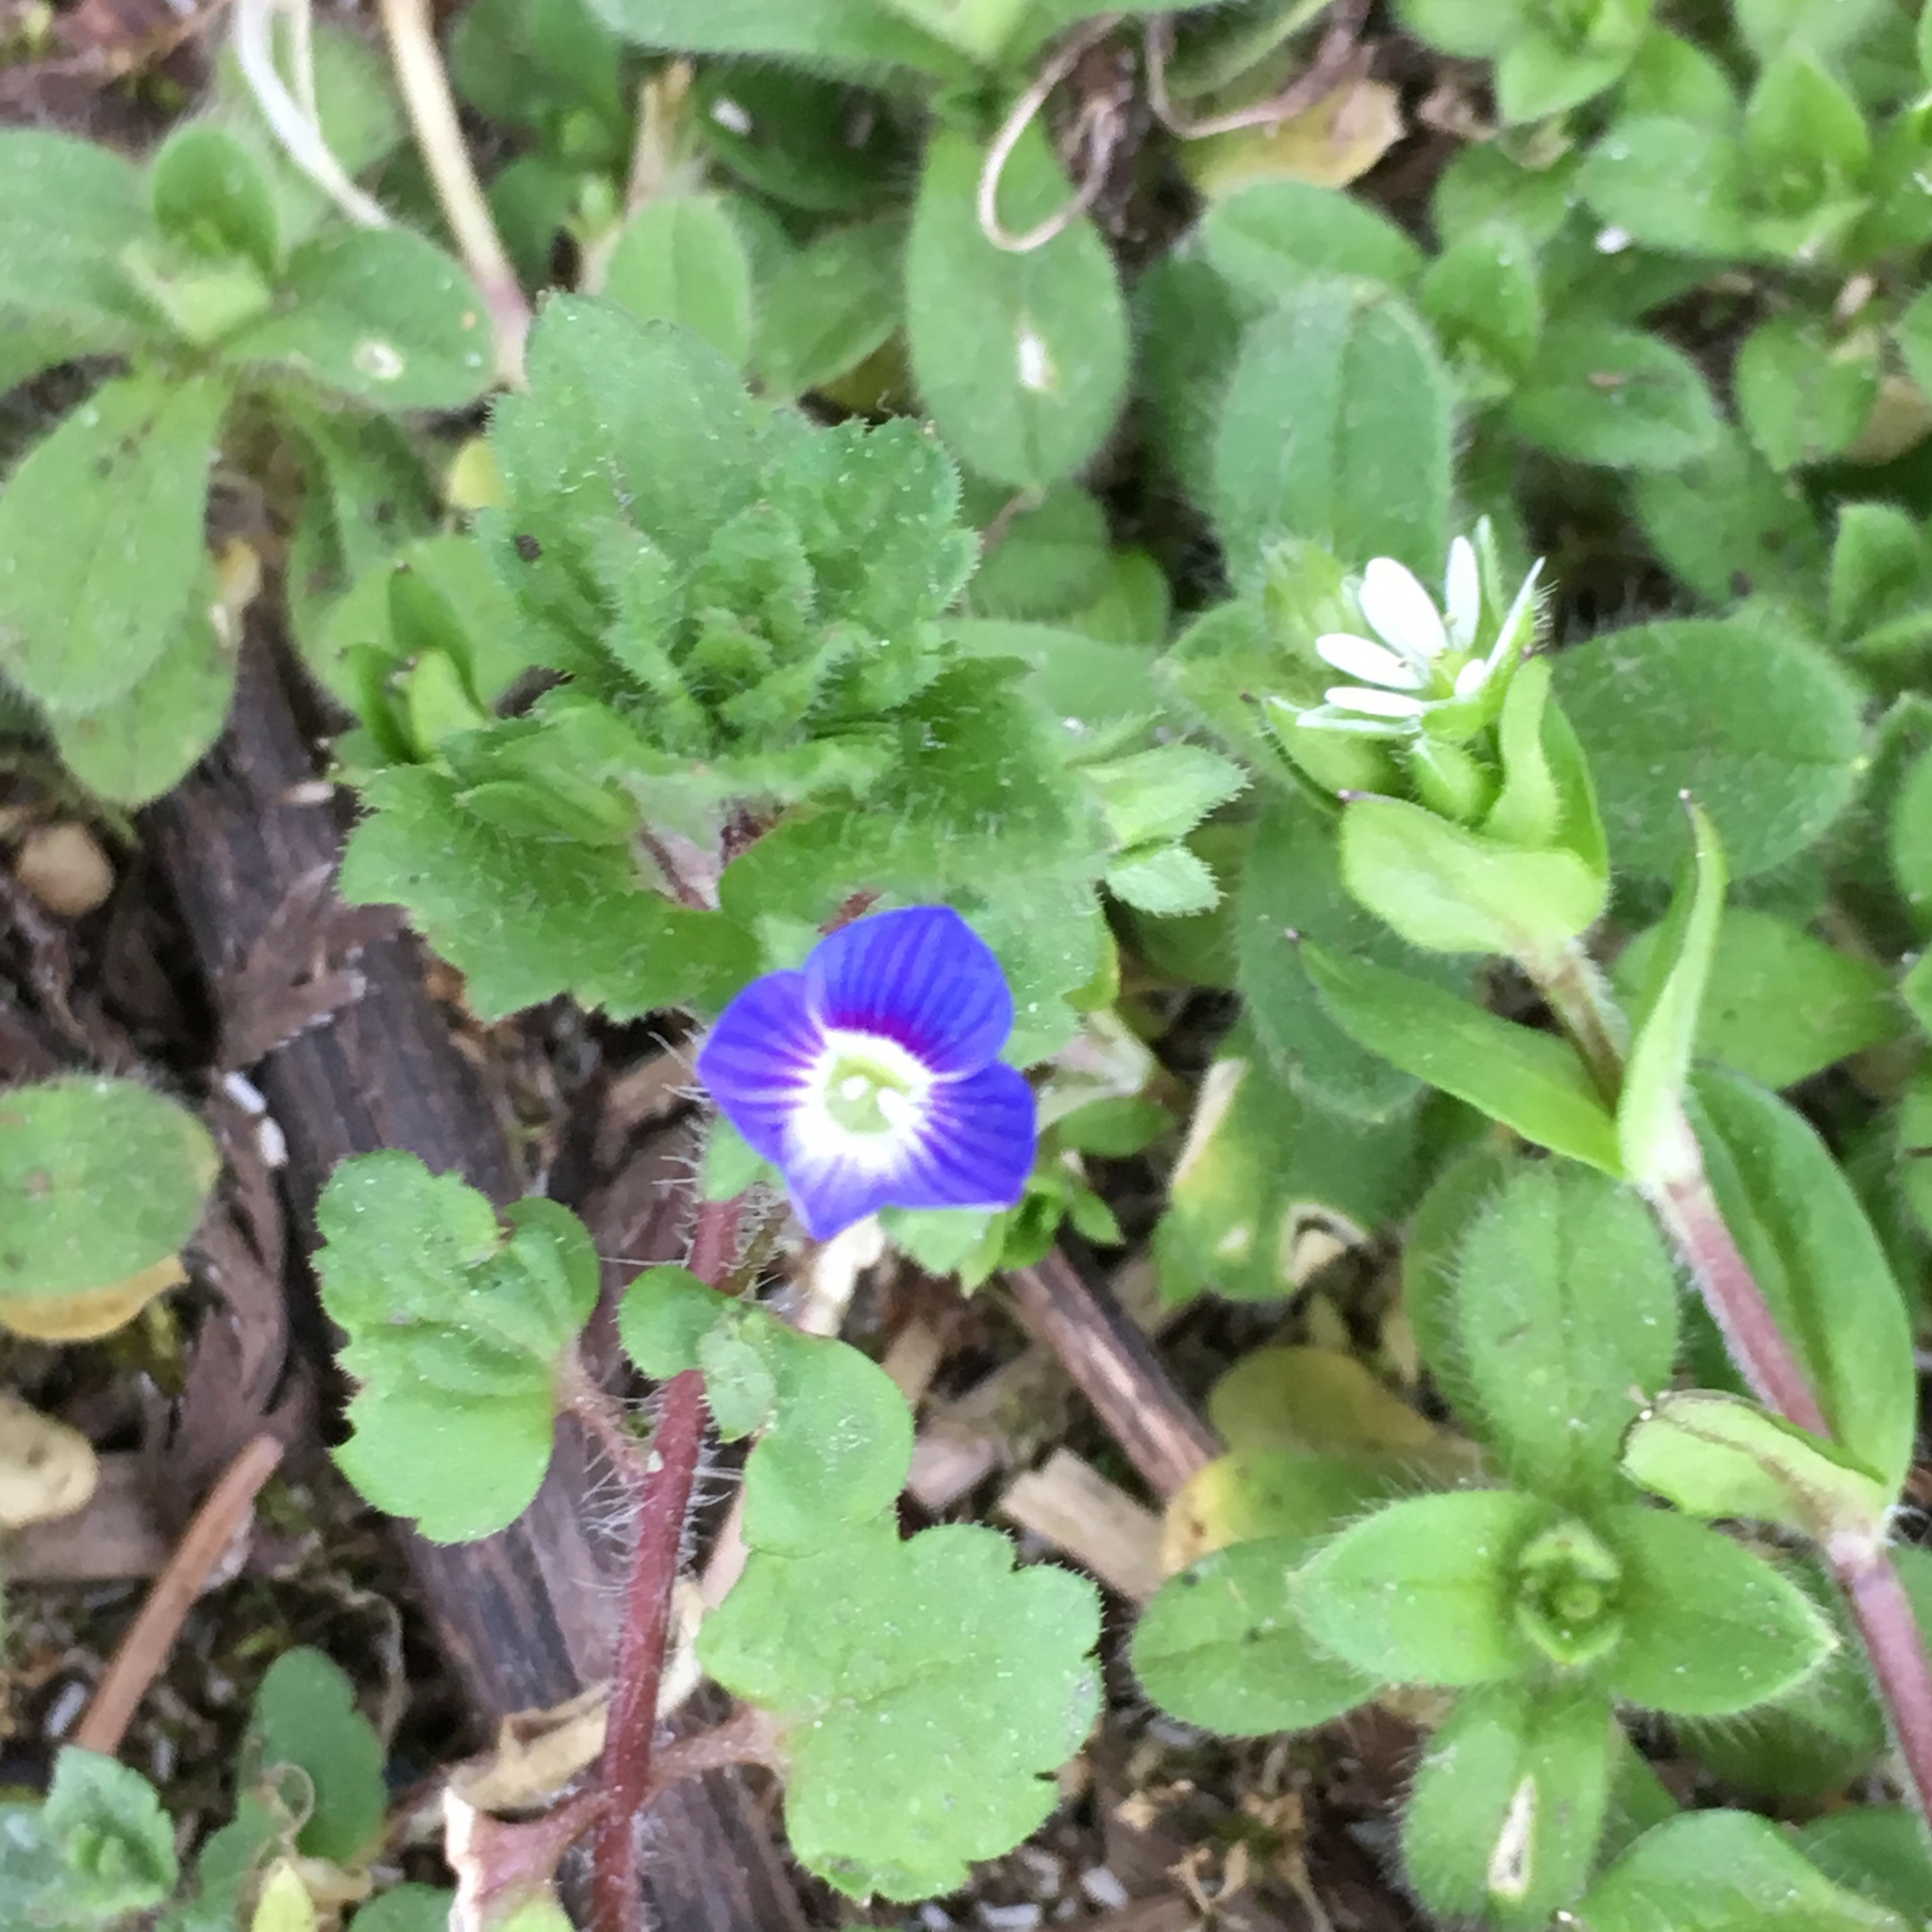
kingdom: Plantae
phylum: Tracheophyta
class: Magnoliopsida
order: Lamiales
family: Plantaginaceae
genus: Veronica
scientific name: Veronica persica
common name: Common field-speedwell
